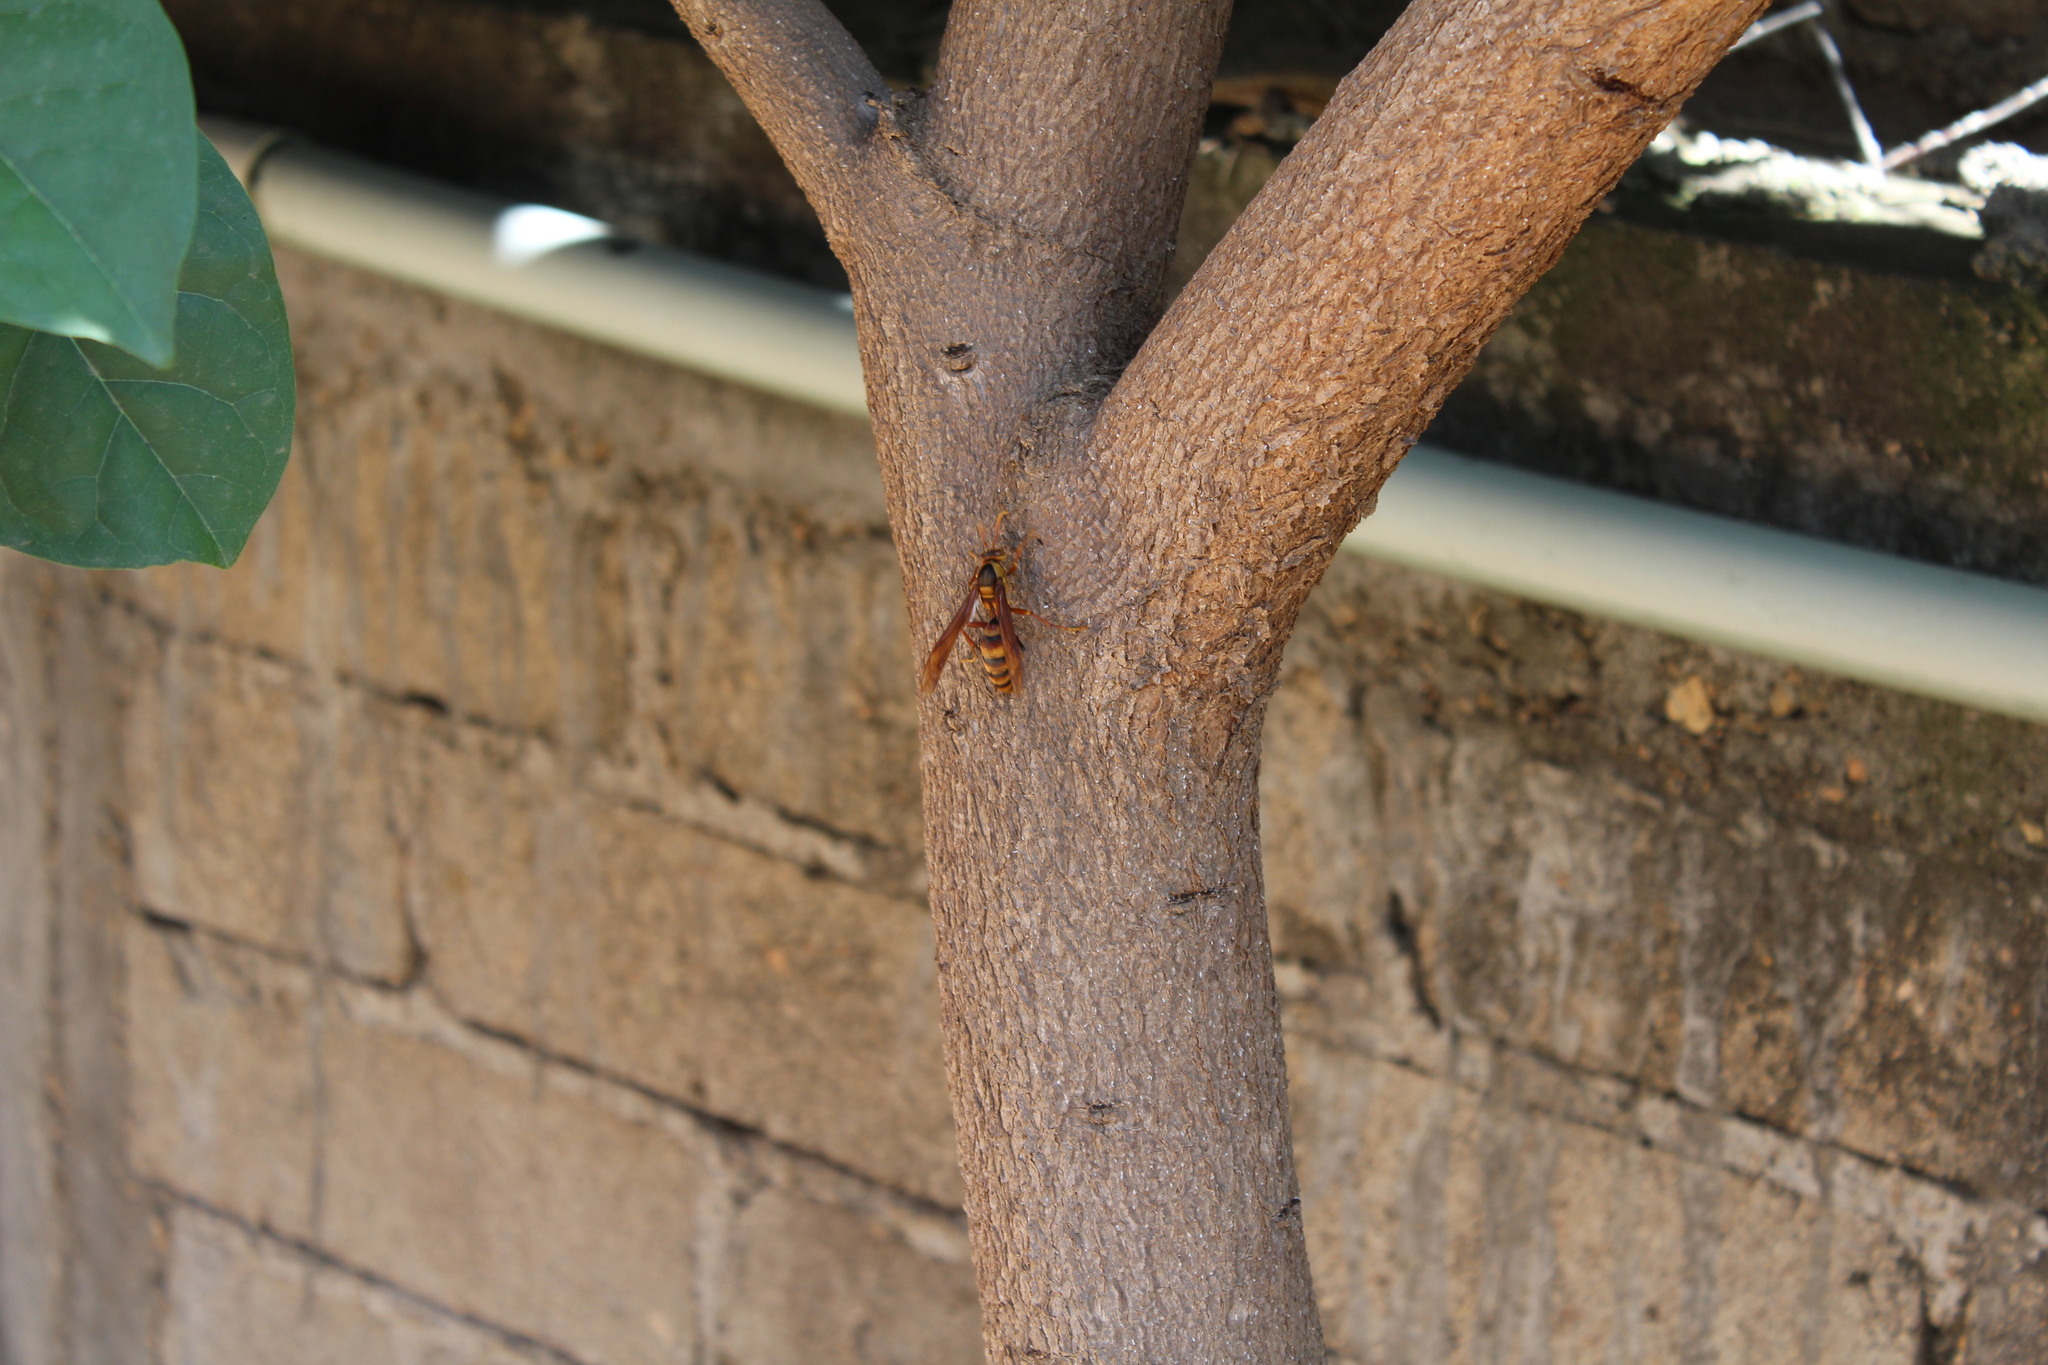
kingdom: Animalia
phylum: Arthropoda
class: Insecta
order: Hymenoptera
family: Eumenidae
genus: Polistes
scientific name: Polistes carnifex
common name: Paper wasp
